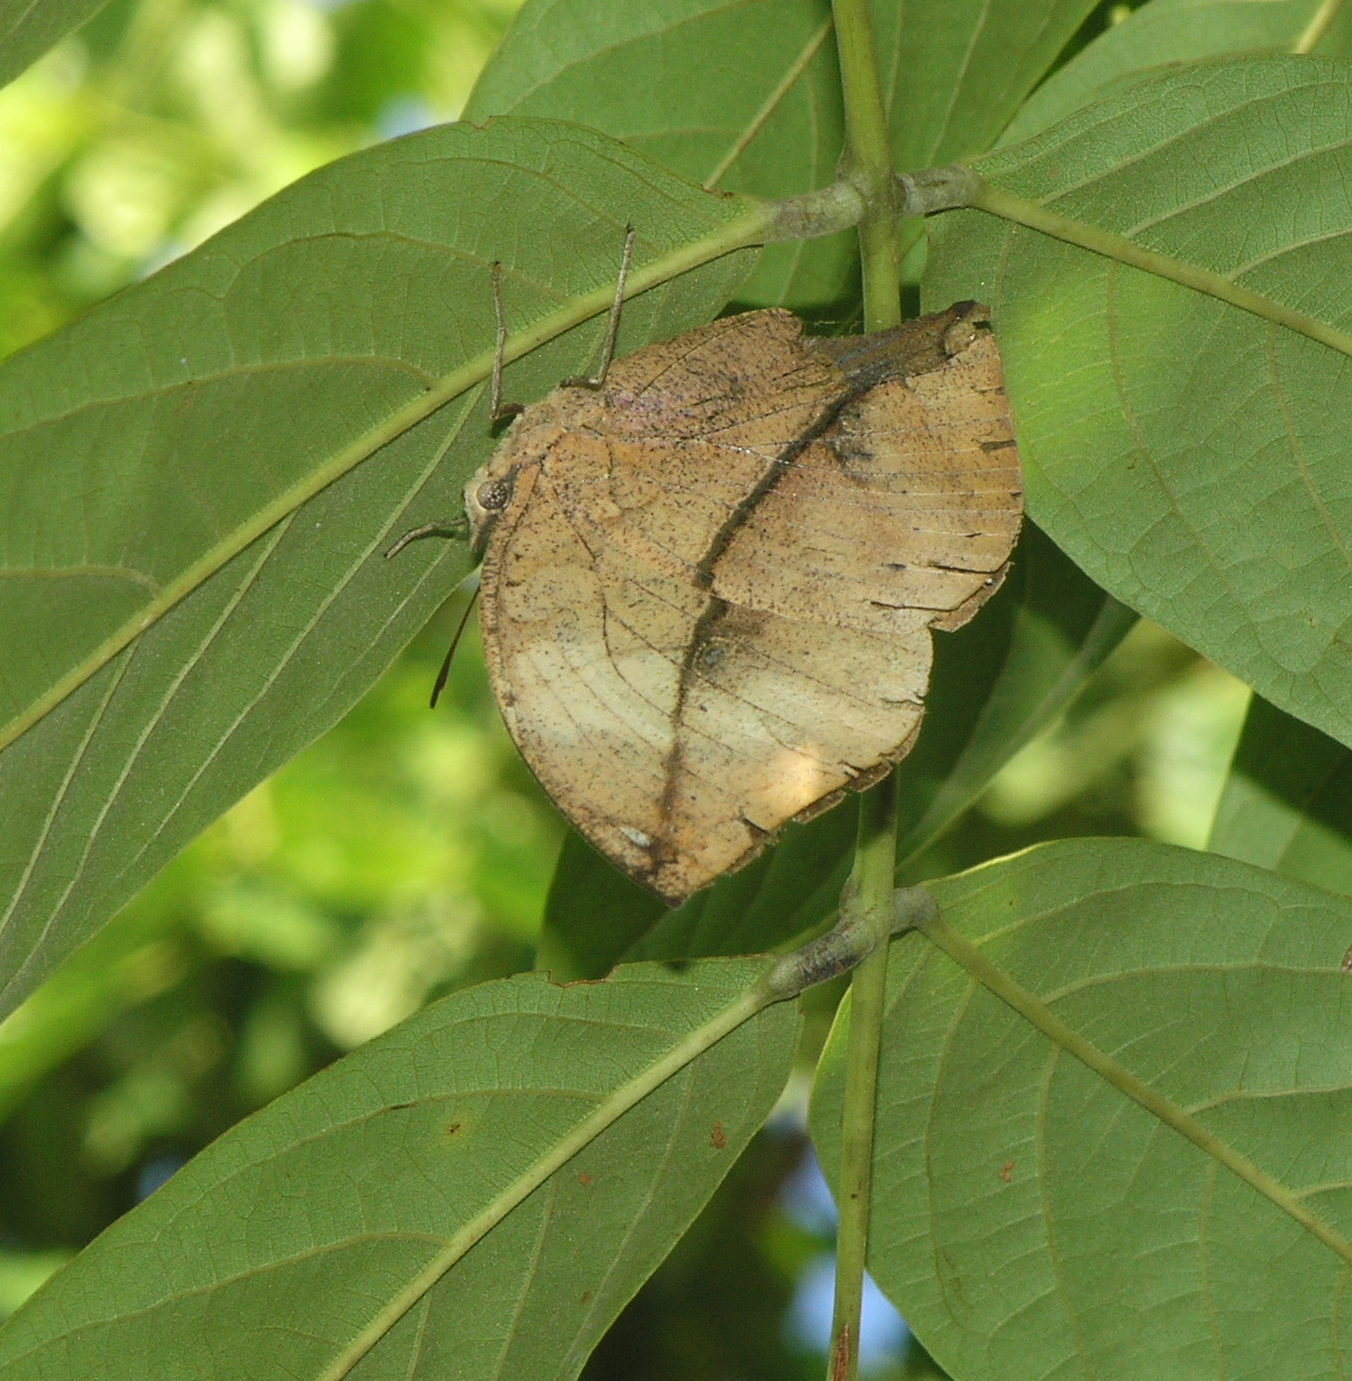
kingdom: Animalia
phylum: Arthropoda
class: Insecta
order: Lepidoptera
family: Nymphalidae
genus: Kallima
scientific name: Kallima inachus
